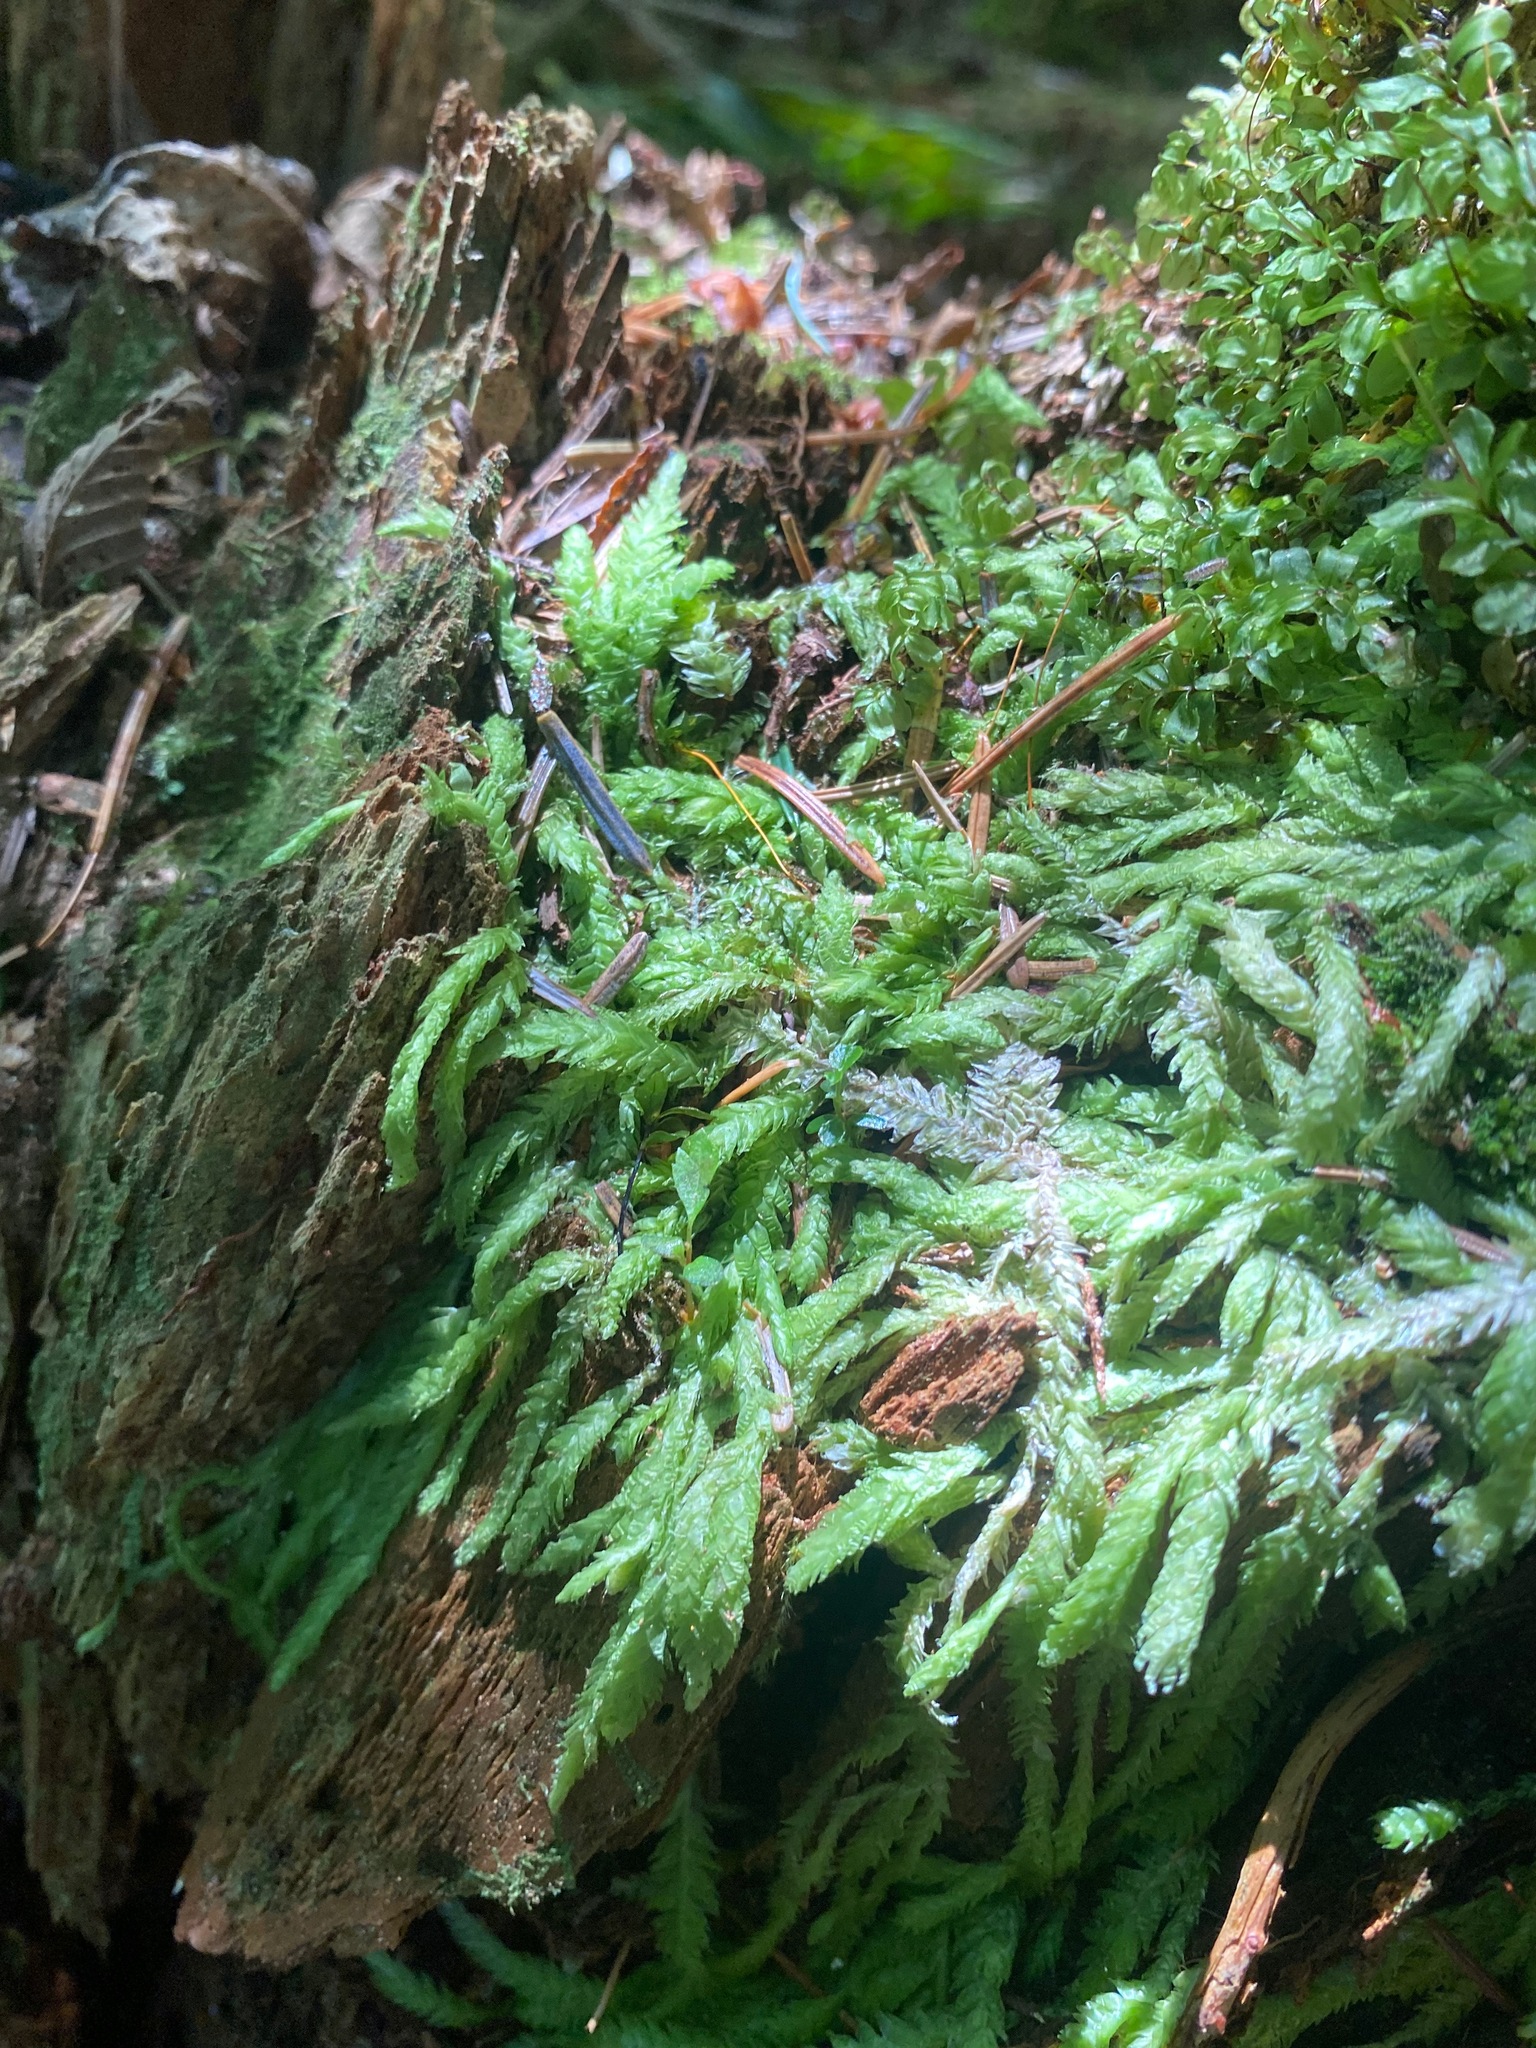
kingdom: Plantae
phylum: Bryophyta
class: Bryopsida
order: Hypnales
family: Plagiotheciaceae
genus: Plagiothecium
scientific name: Plagiothecium undulatum
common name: Waved silk-moss
